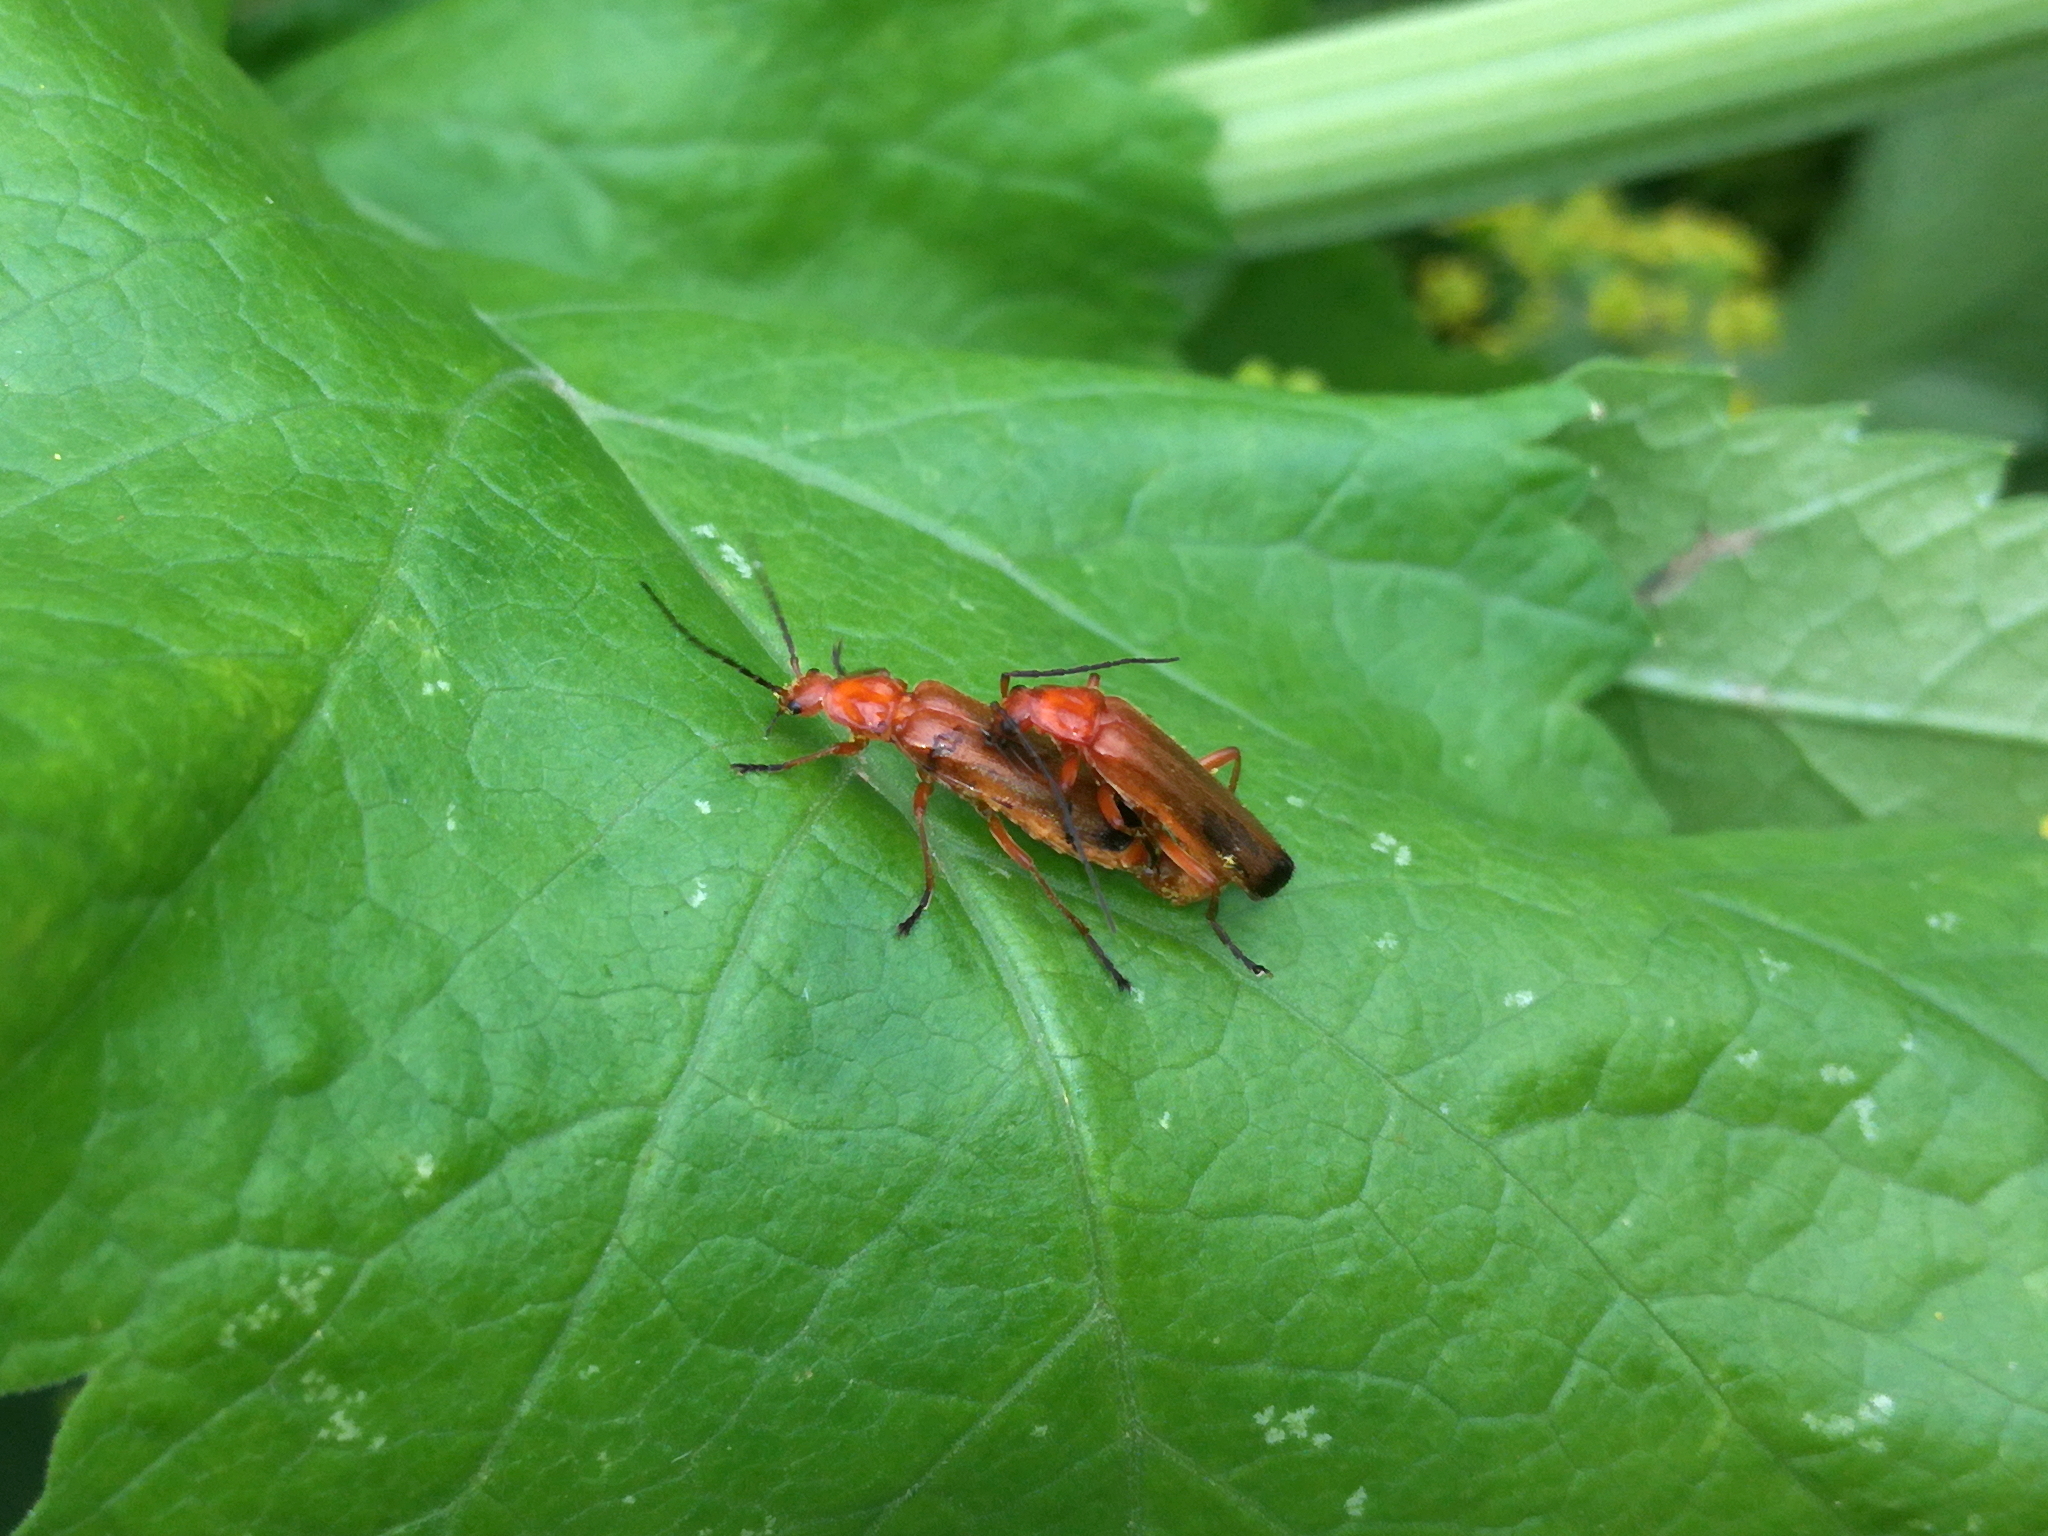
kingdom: Animalia
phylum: Arthropoda
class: Insecta
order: Coleoptera
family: Cantharidae
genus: Rhagonycha
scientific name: Rhagonycha fulva
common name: Common red soldier beetle
